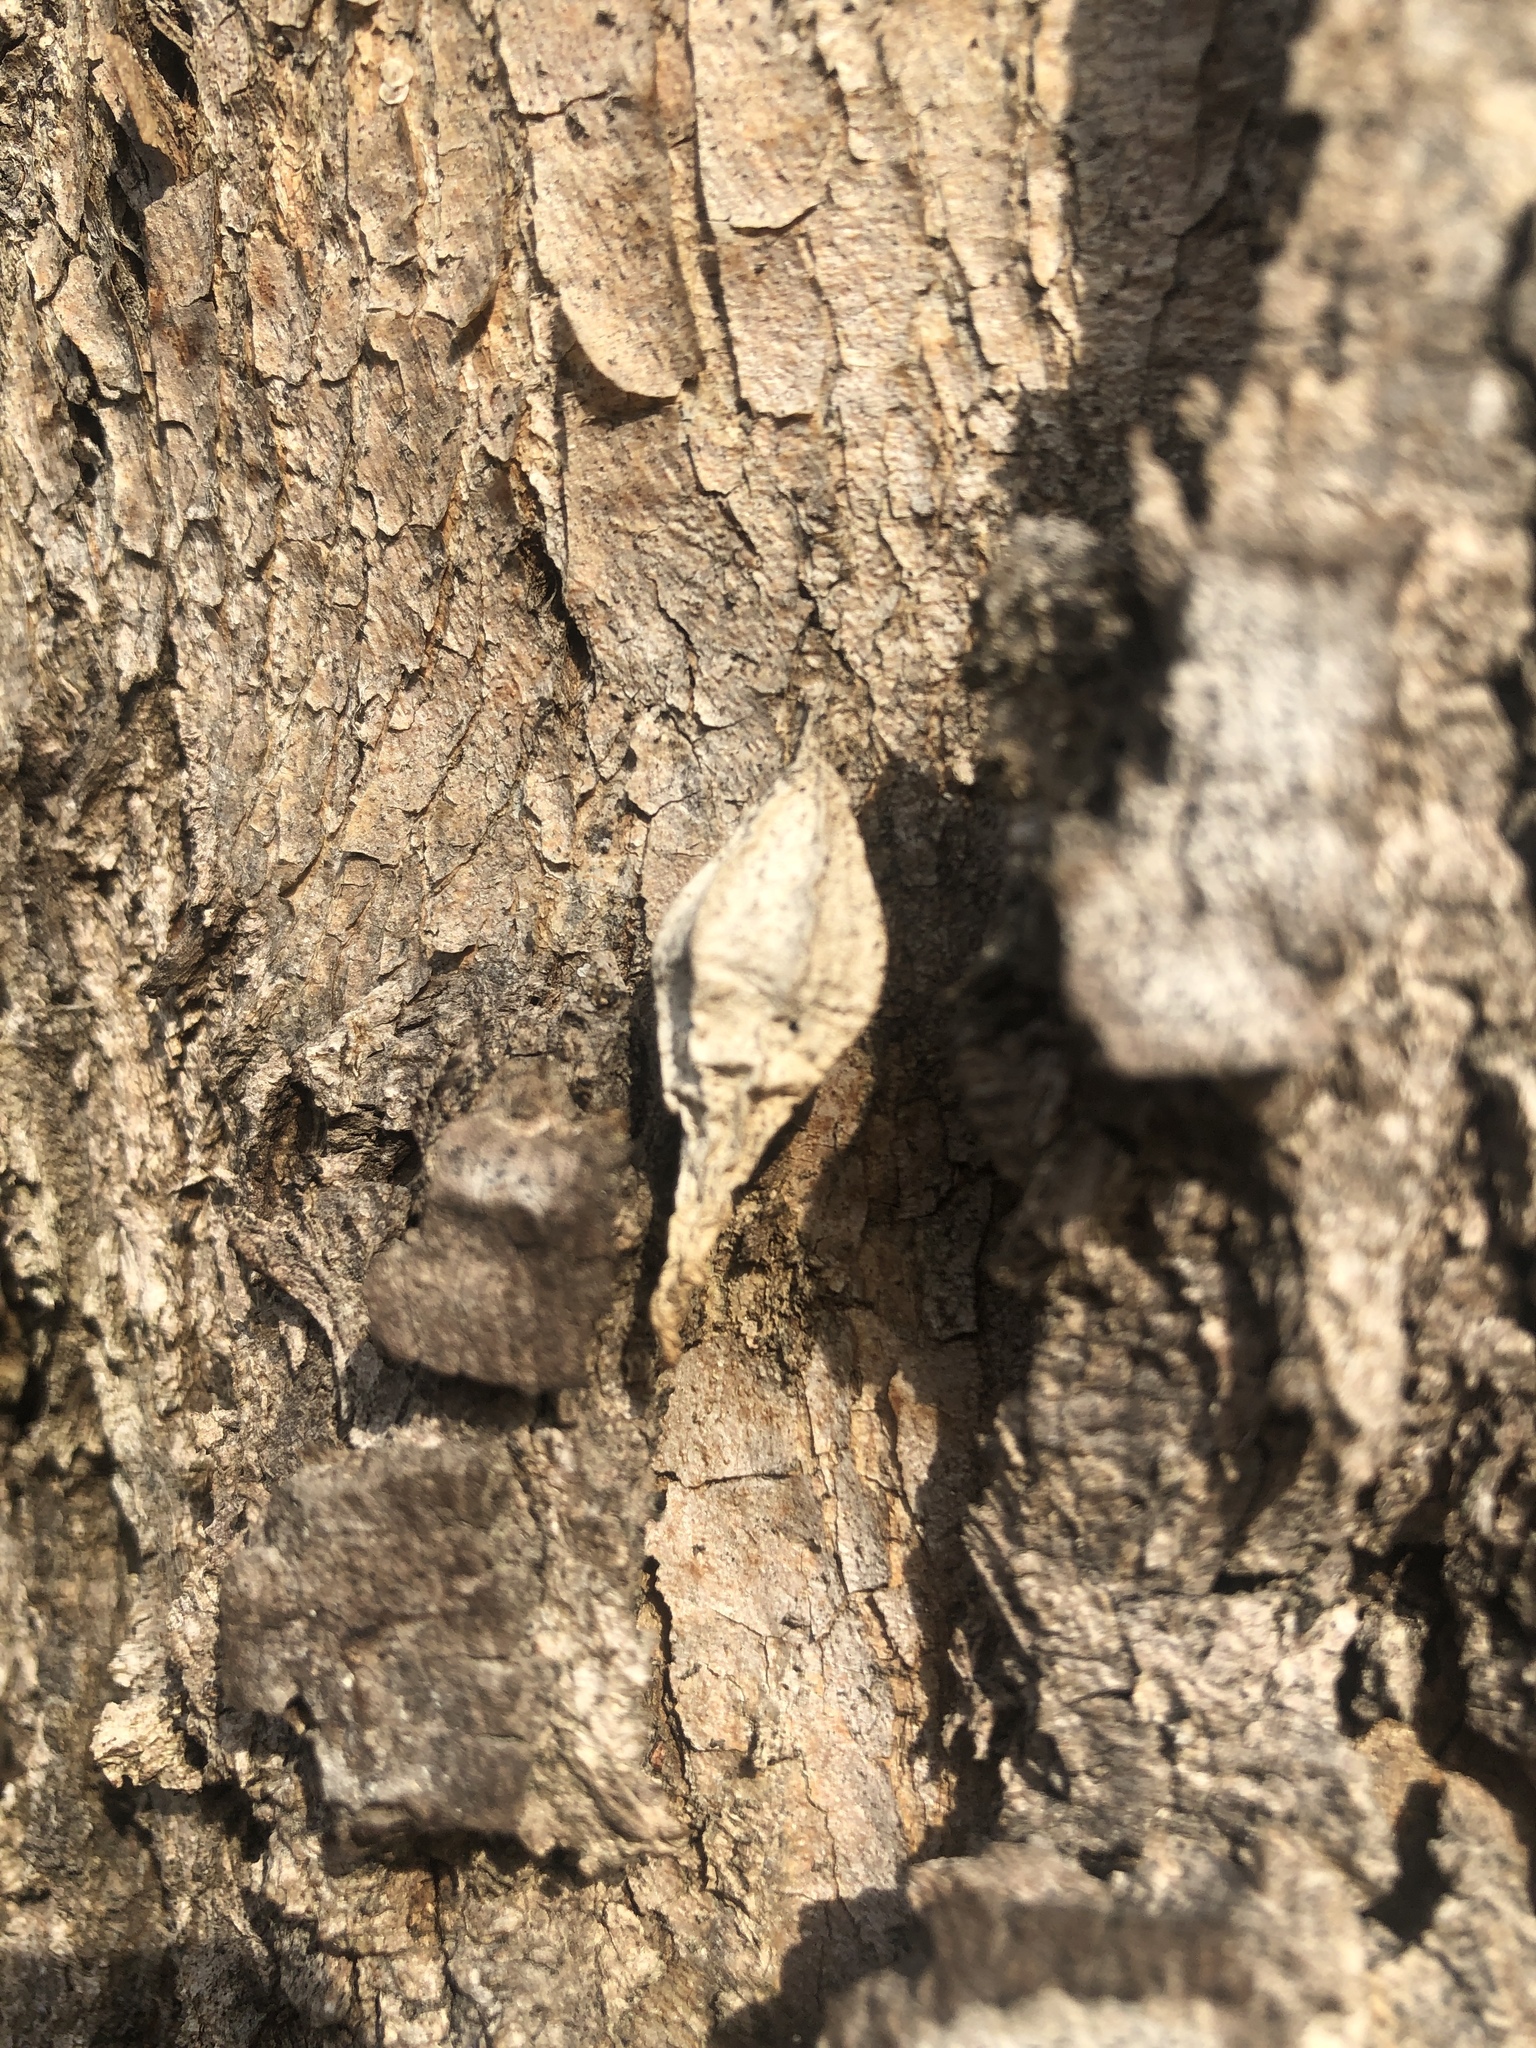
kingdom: Animalia
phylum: Arthropoda
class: Insecta
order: Lepidoptera
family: Psychidae
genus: Hyalarcta
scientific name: Hyalarcta nigrescens
